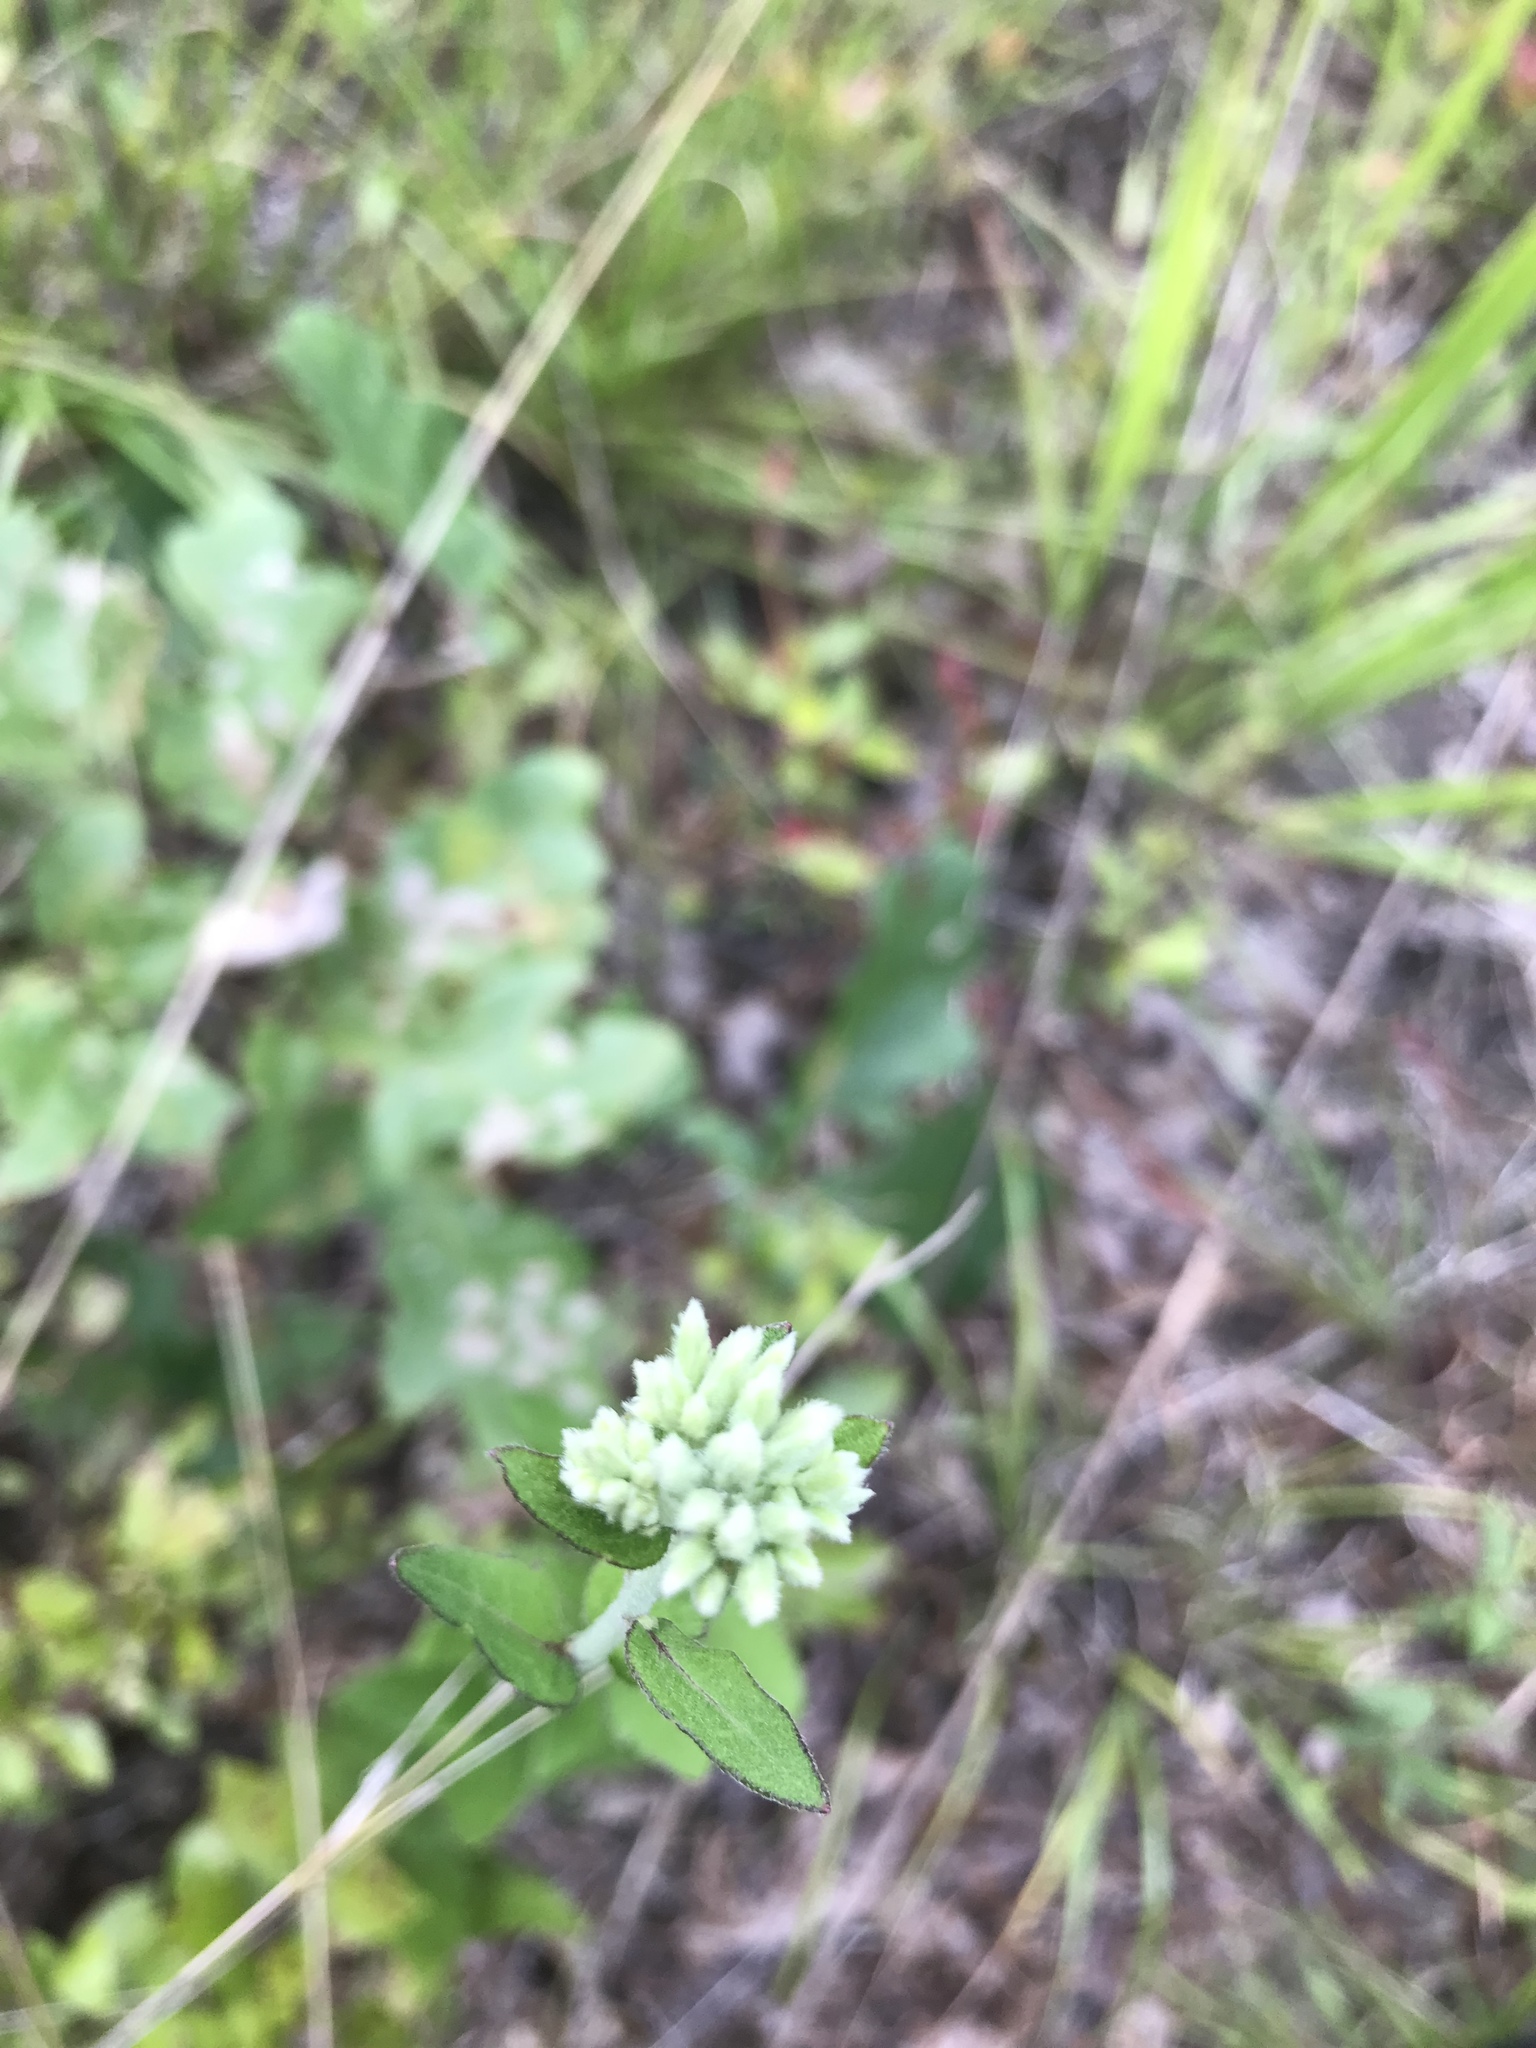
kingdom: Plantae
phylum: Tracheophyta
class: Magnoliopsida
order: Asterales
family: Asteraceae
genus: Eupatorium
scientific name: Eupatorium album
